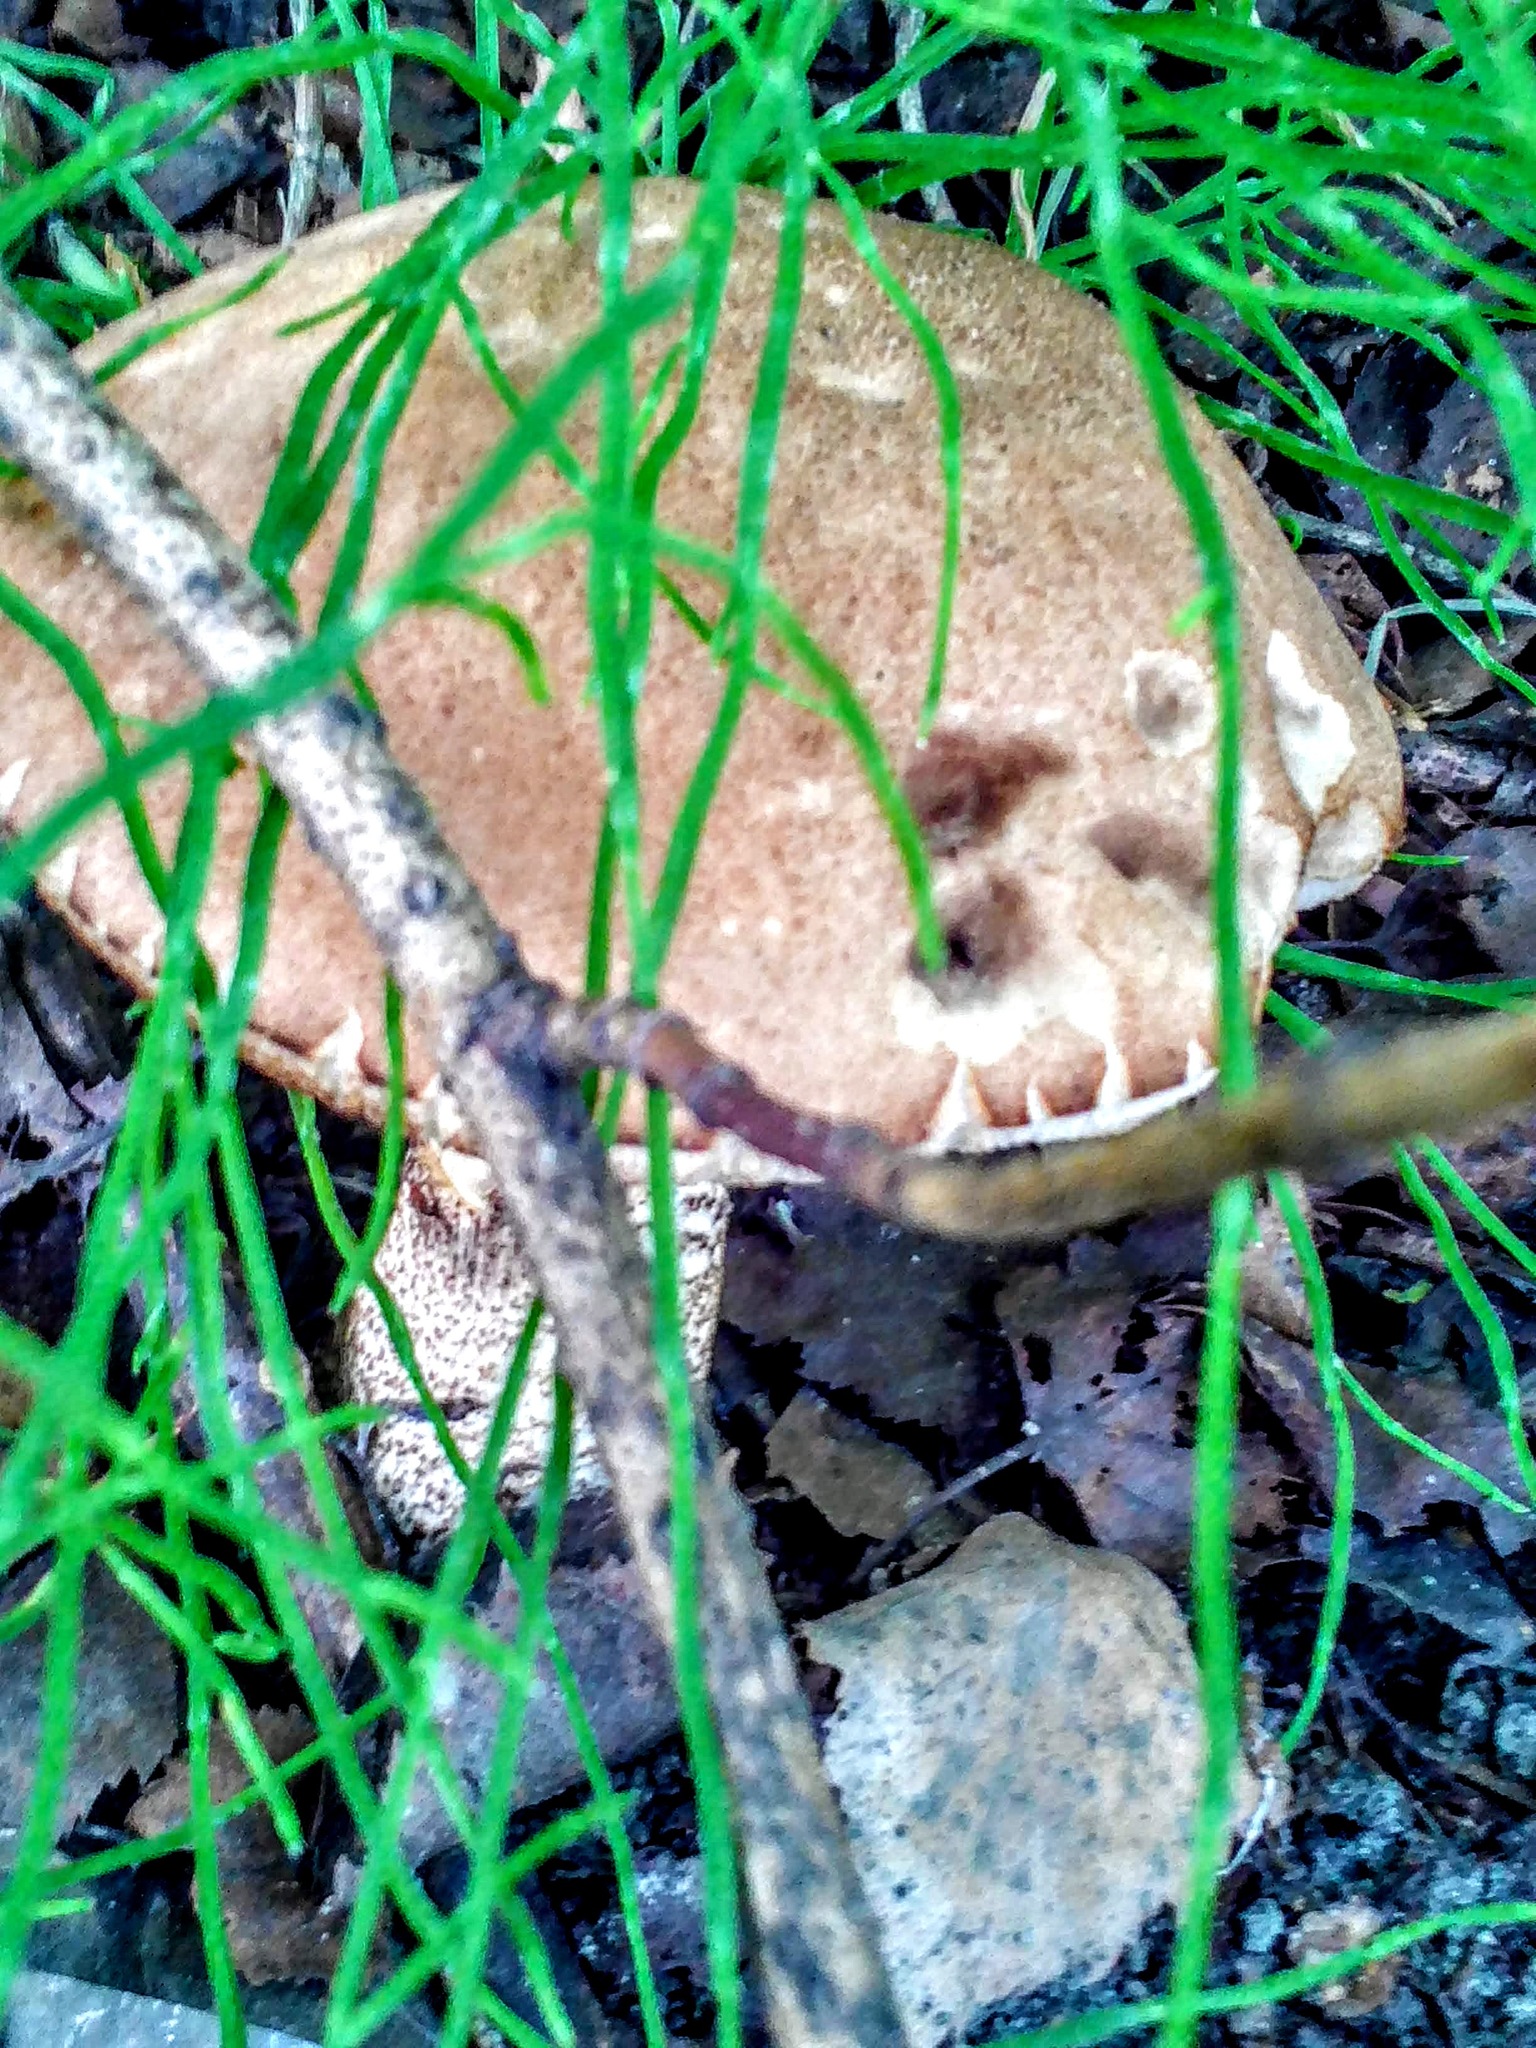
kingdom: Fungi
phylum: Basidiomycota
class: Agaricomycetes
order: Boletales
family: Boletaceae
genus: Leccinum
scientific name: Leccinum scabrum
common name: Blushing bolete
